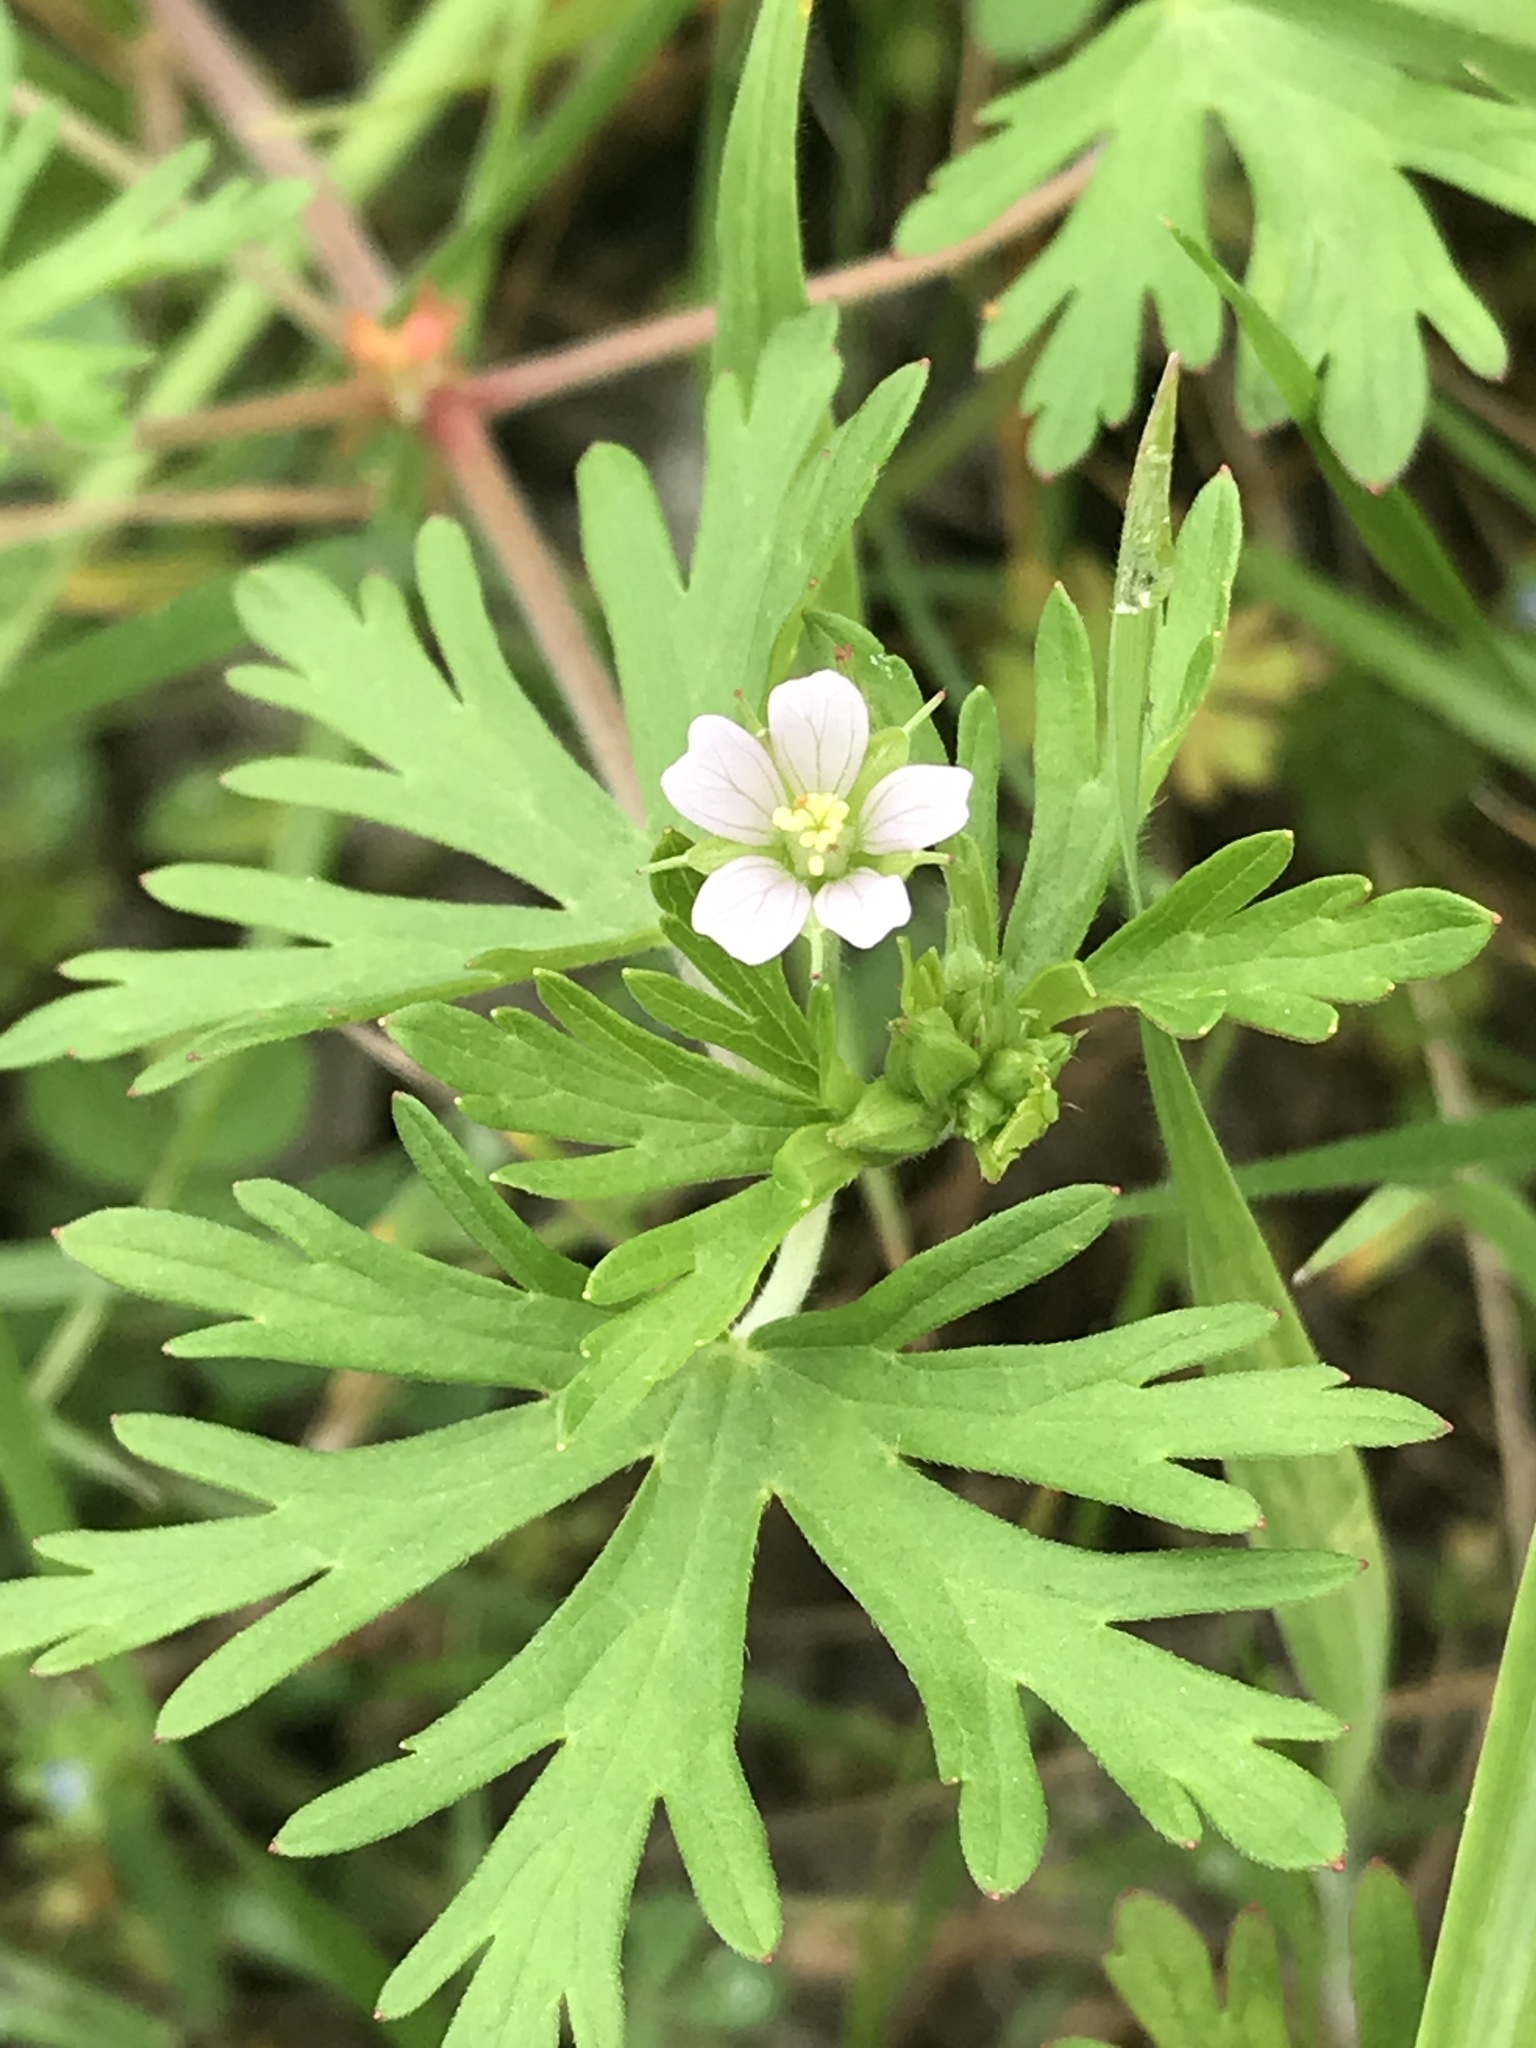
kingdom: Plantae
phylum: Tracheophyta
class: Magnoliopsida
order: Geraniales
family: Geraniaceae
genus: Geranium
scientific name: Geranium carolinianum
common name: Carolina crane's-bill
